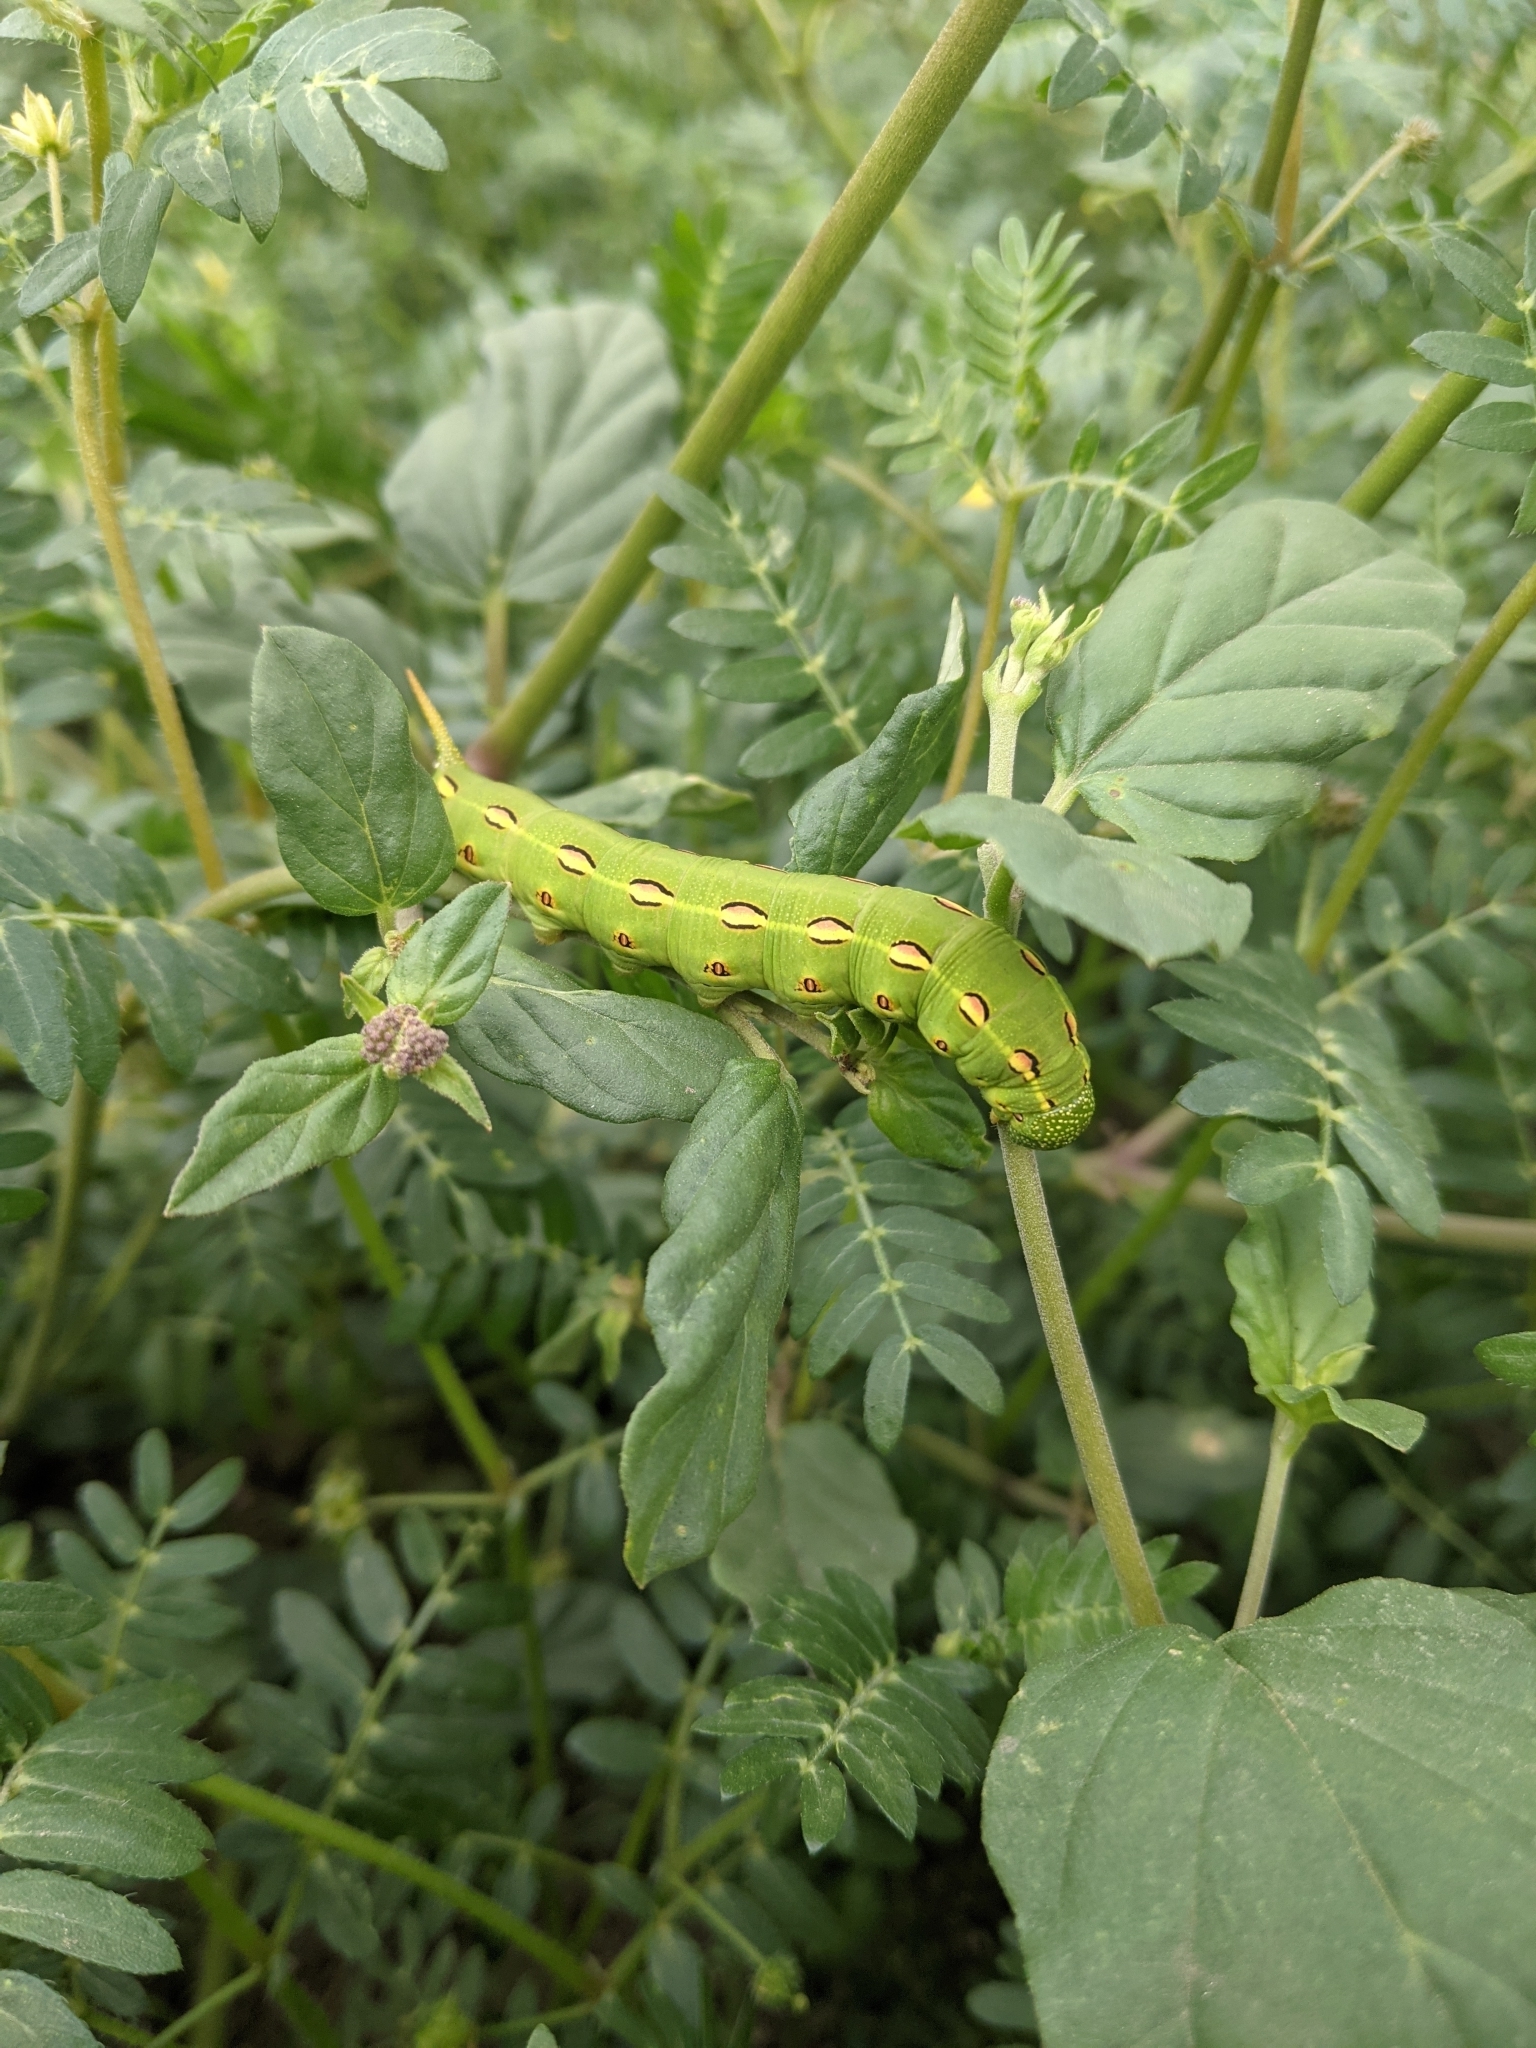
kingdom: Animalia
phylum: Arthropoda
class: Insecta
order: Lepidoptera
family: Sphingidae
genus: Hyles
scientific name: Hyles lineata
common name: White-lined sphinx
